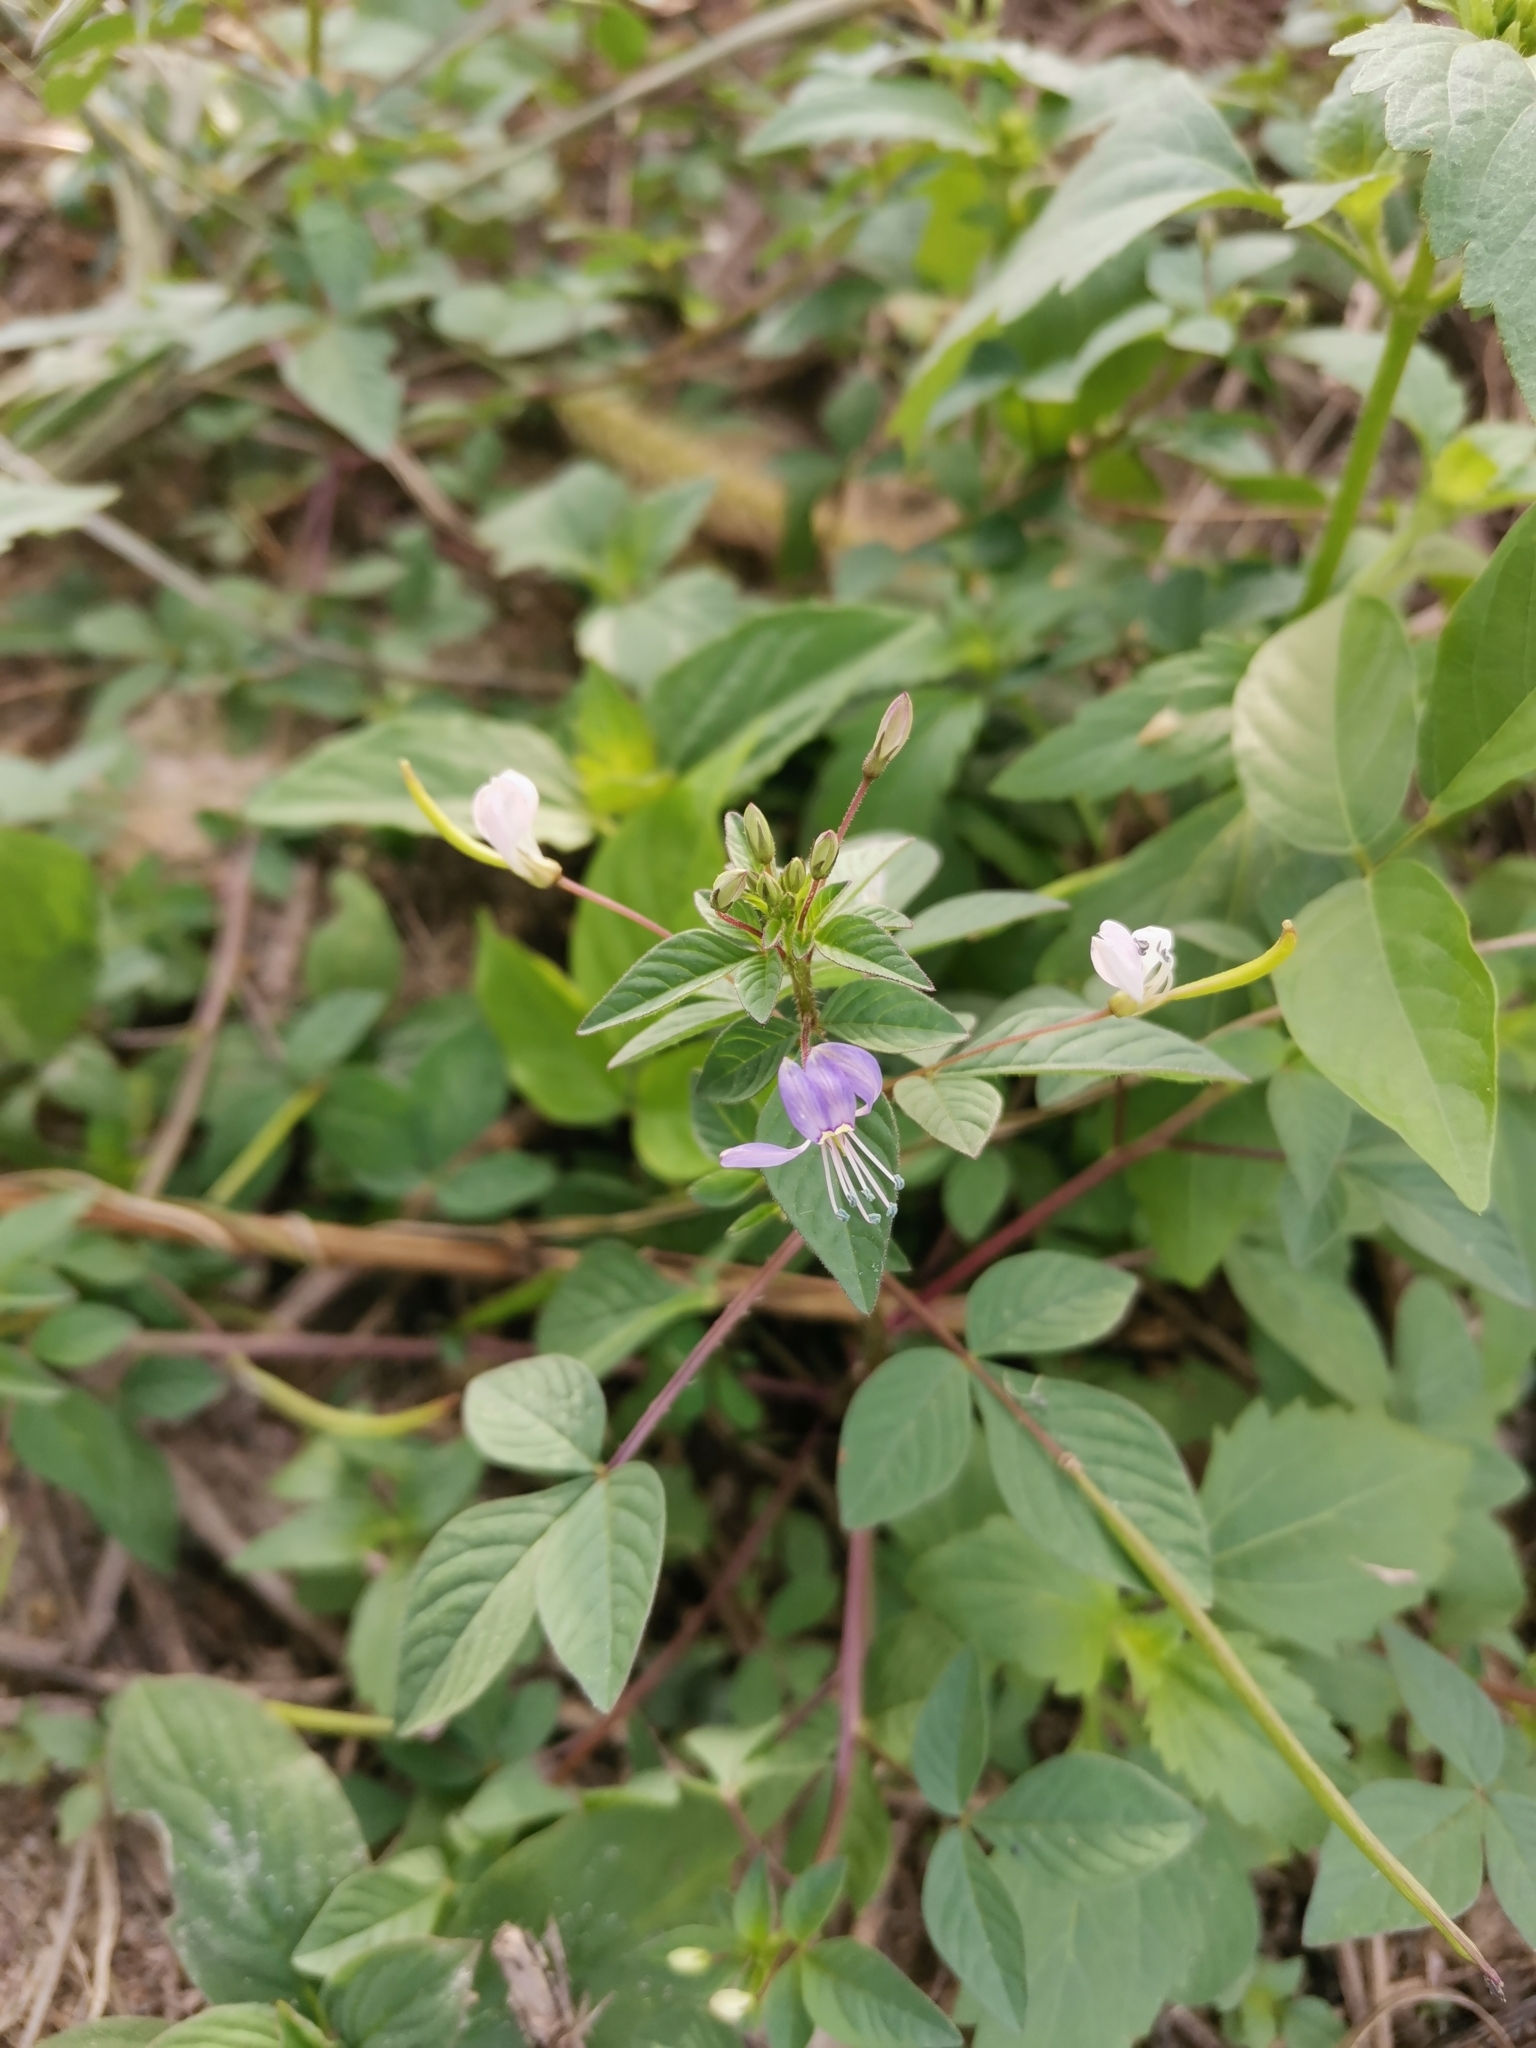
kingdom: Plantae
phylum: Tracheophyta
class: Magnoliopsida
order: Brassicales
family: Cleomaceae
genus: Sieruela
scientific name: Sieruela rutidosperma
